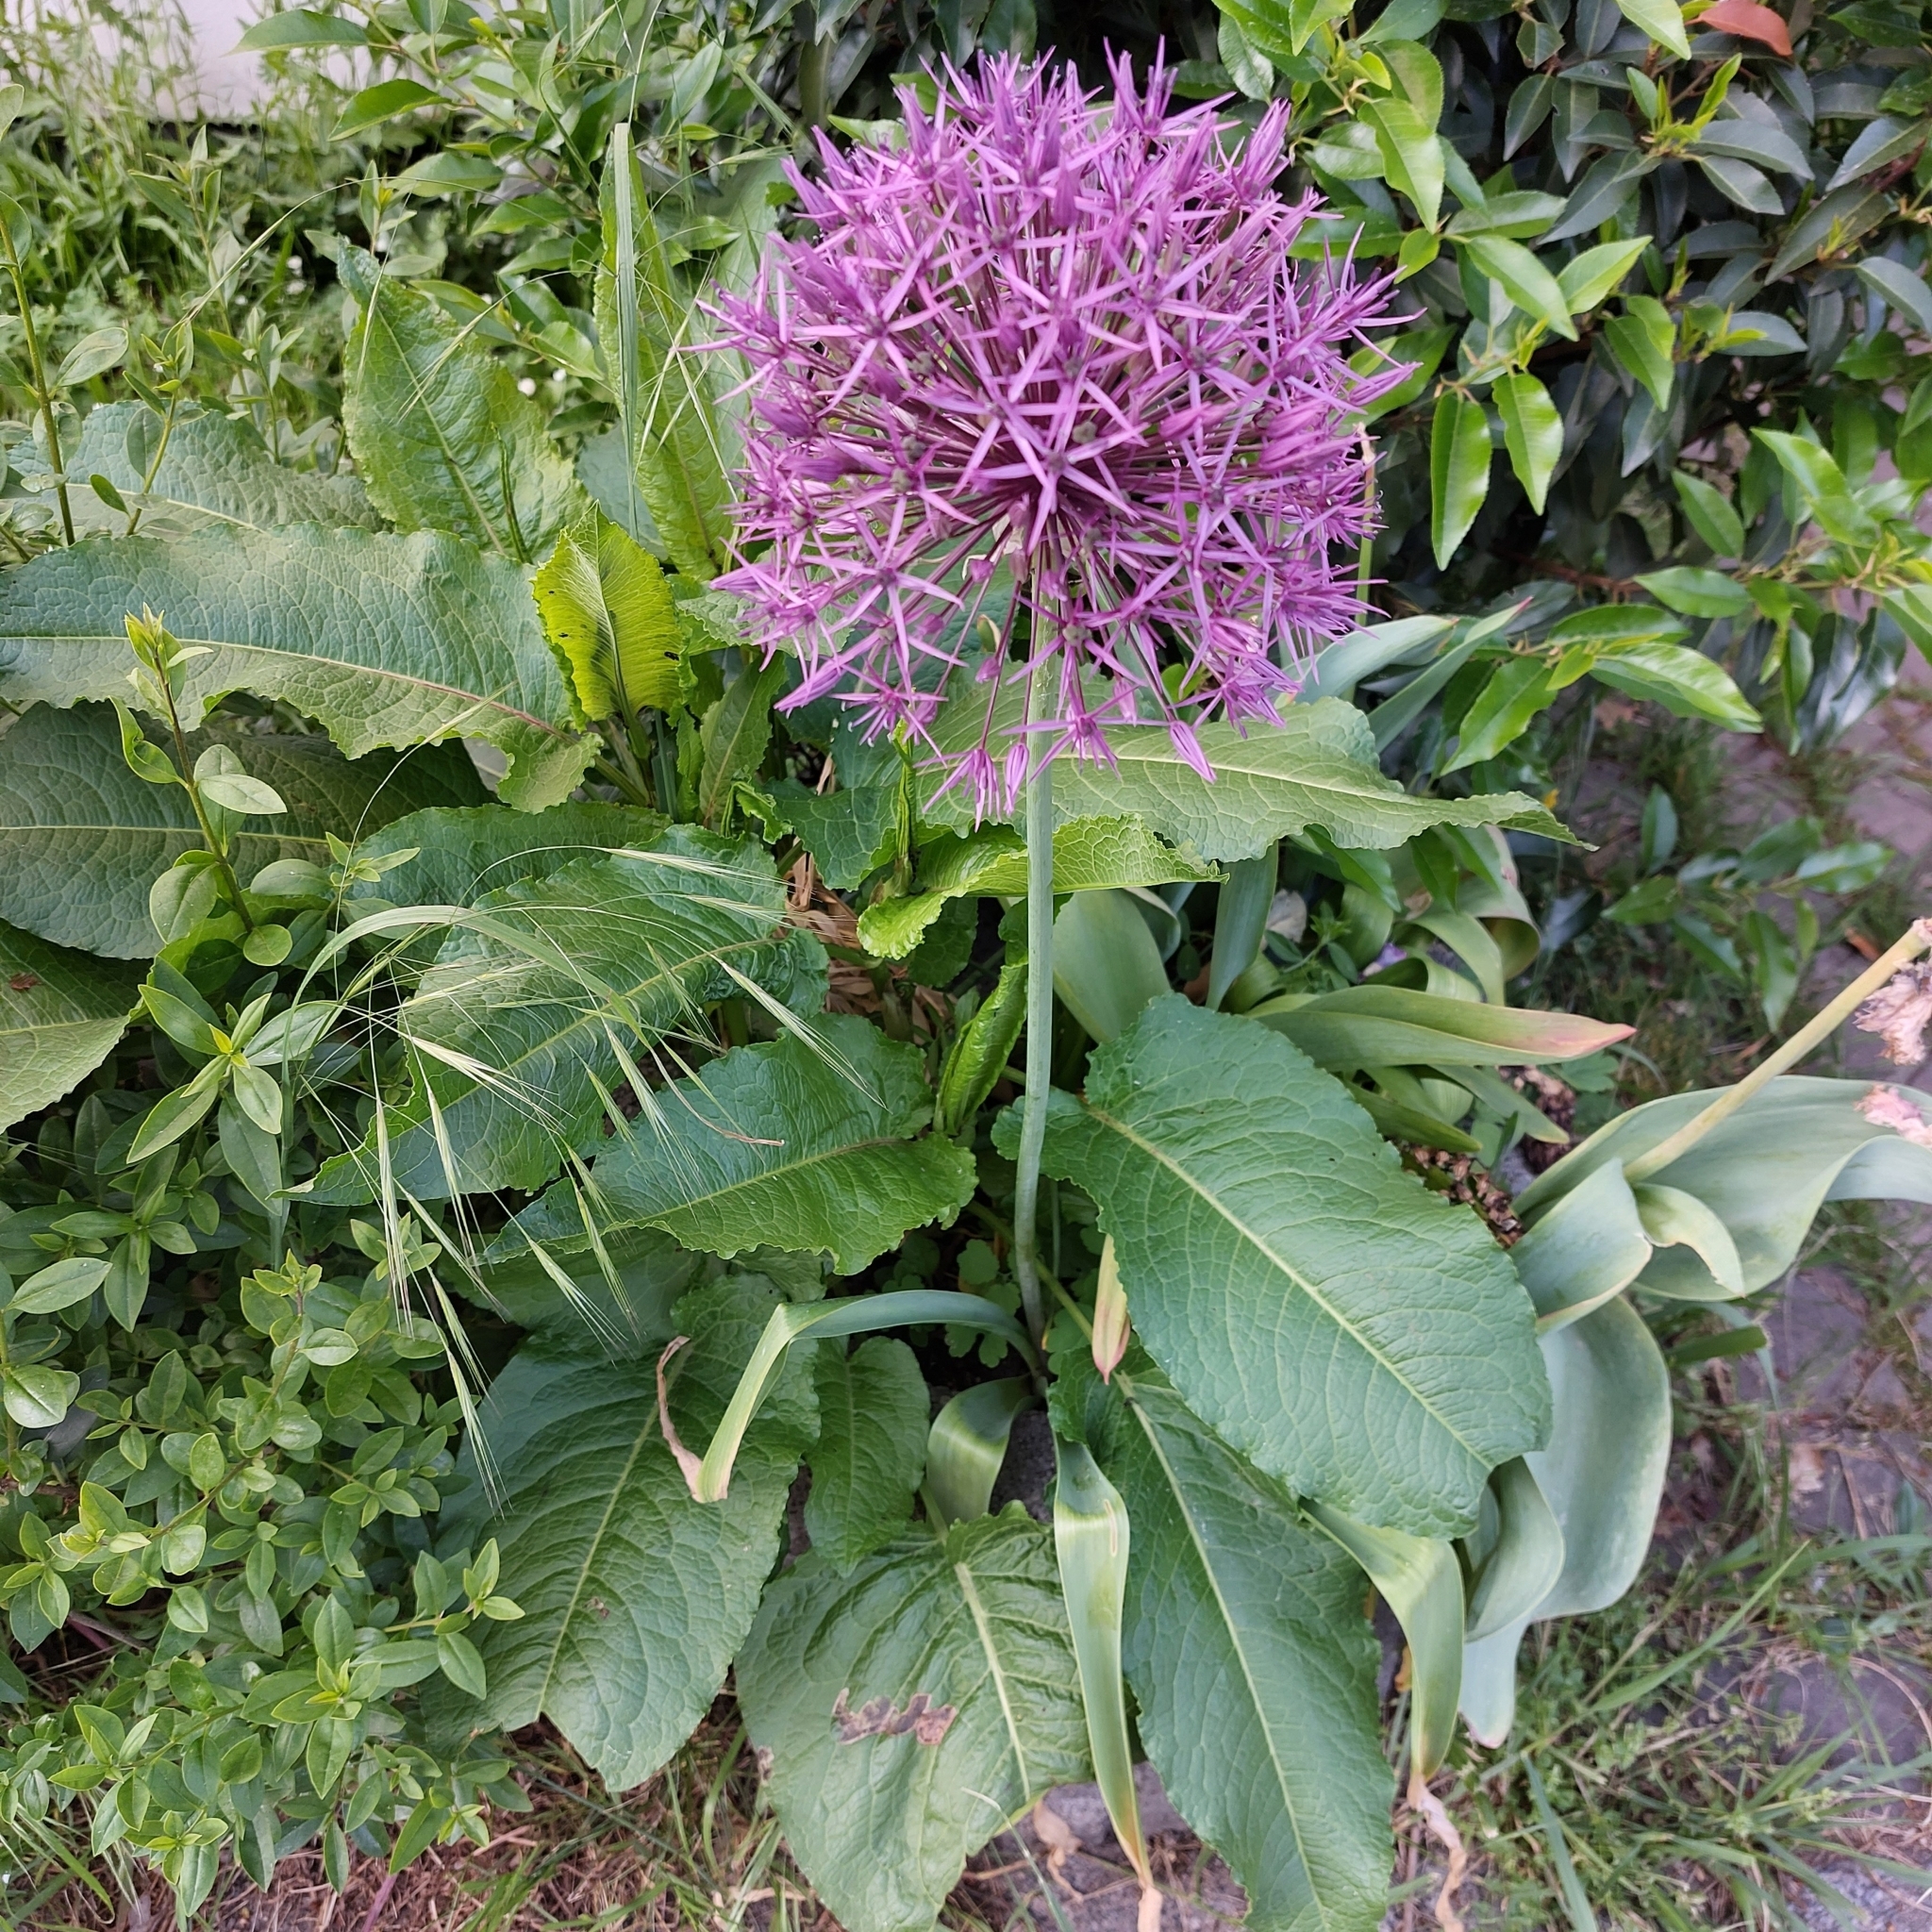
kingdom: Plantae
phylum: Tracheophyta
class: Liliopsida
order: Asparagales
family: Amaryllidaceae
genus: Allium
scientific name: Allium cristophii
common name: Persian onion
